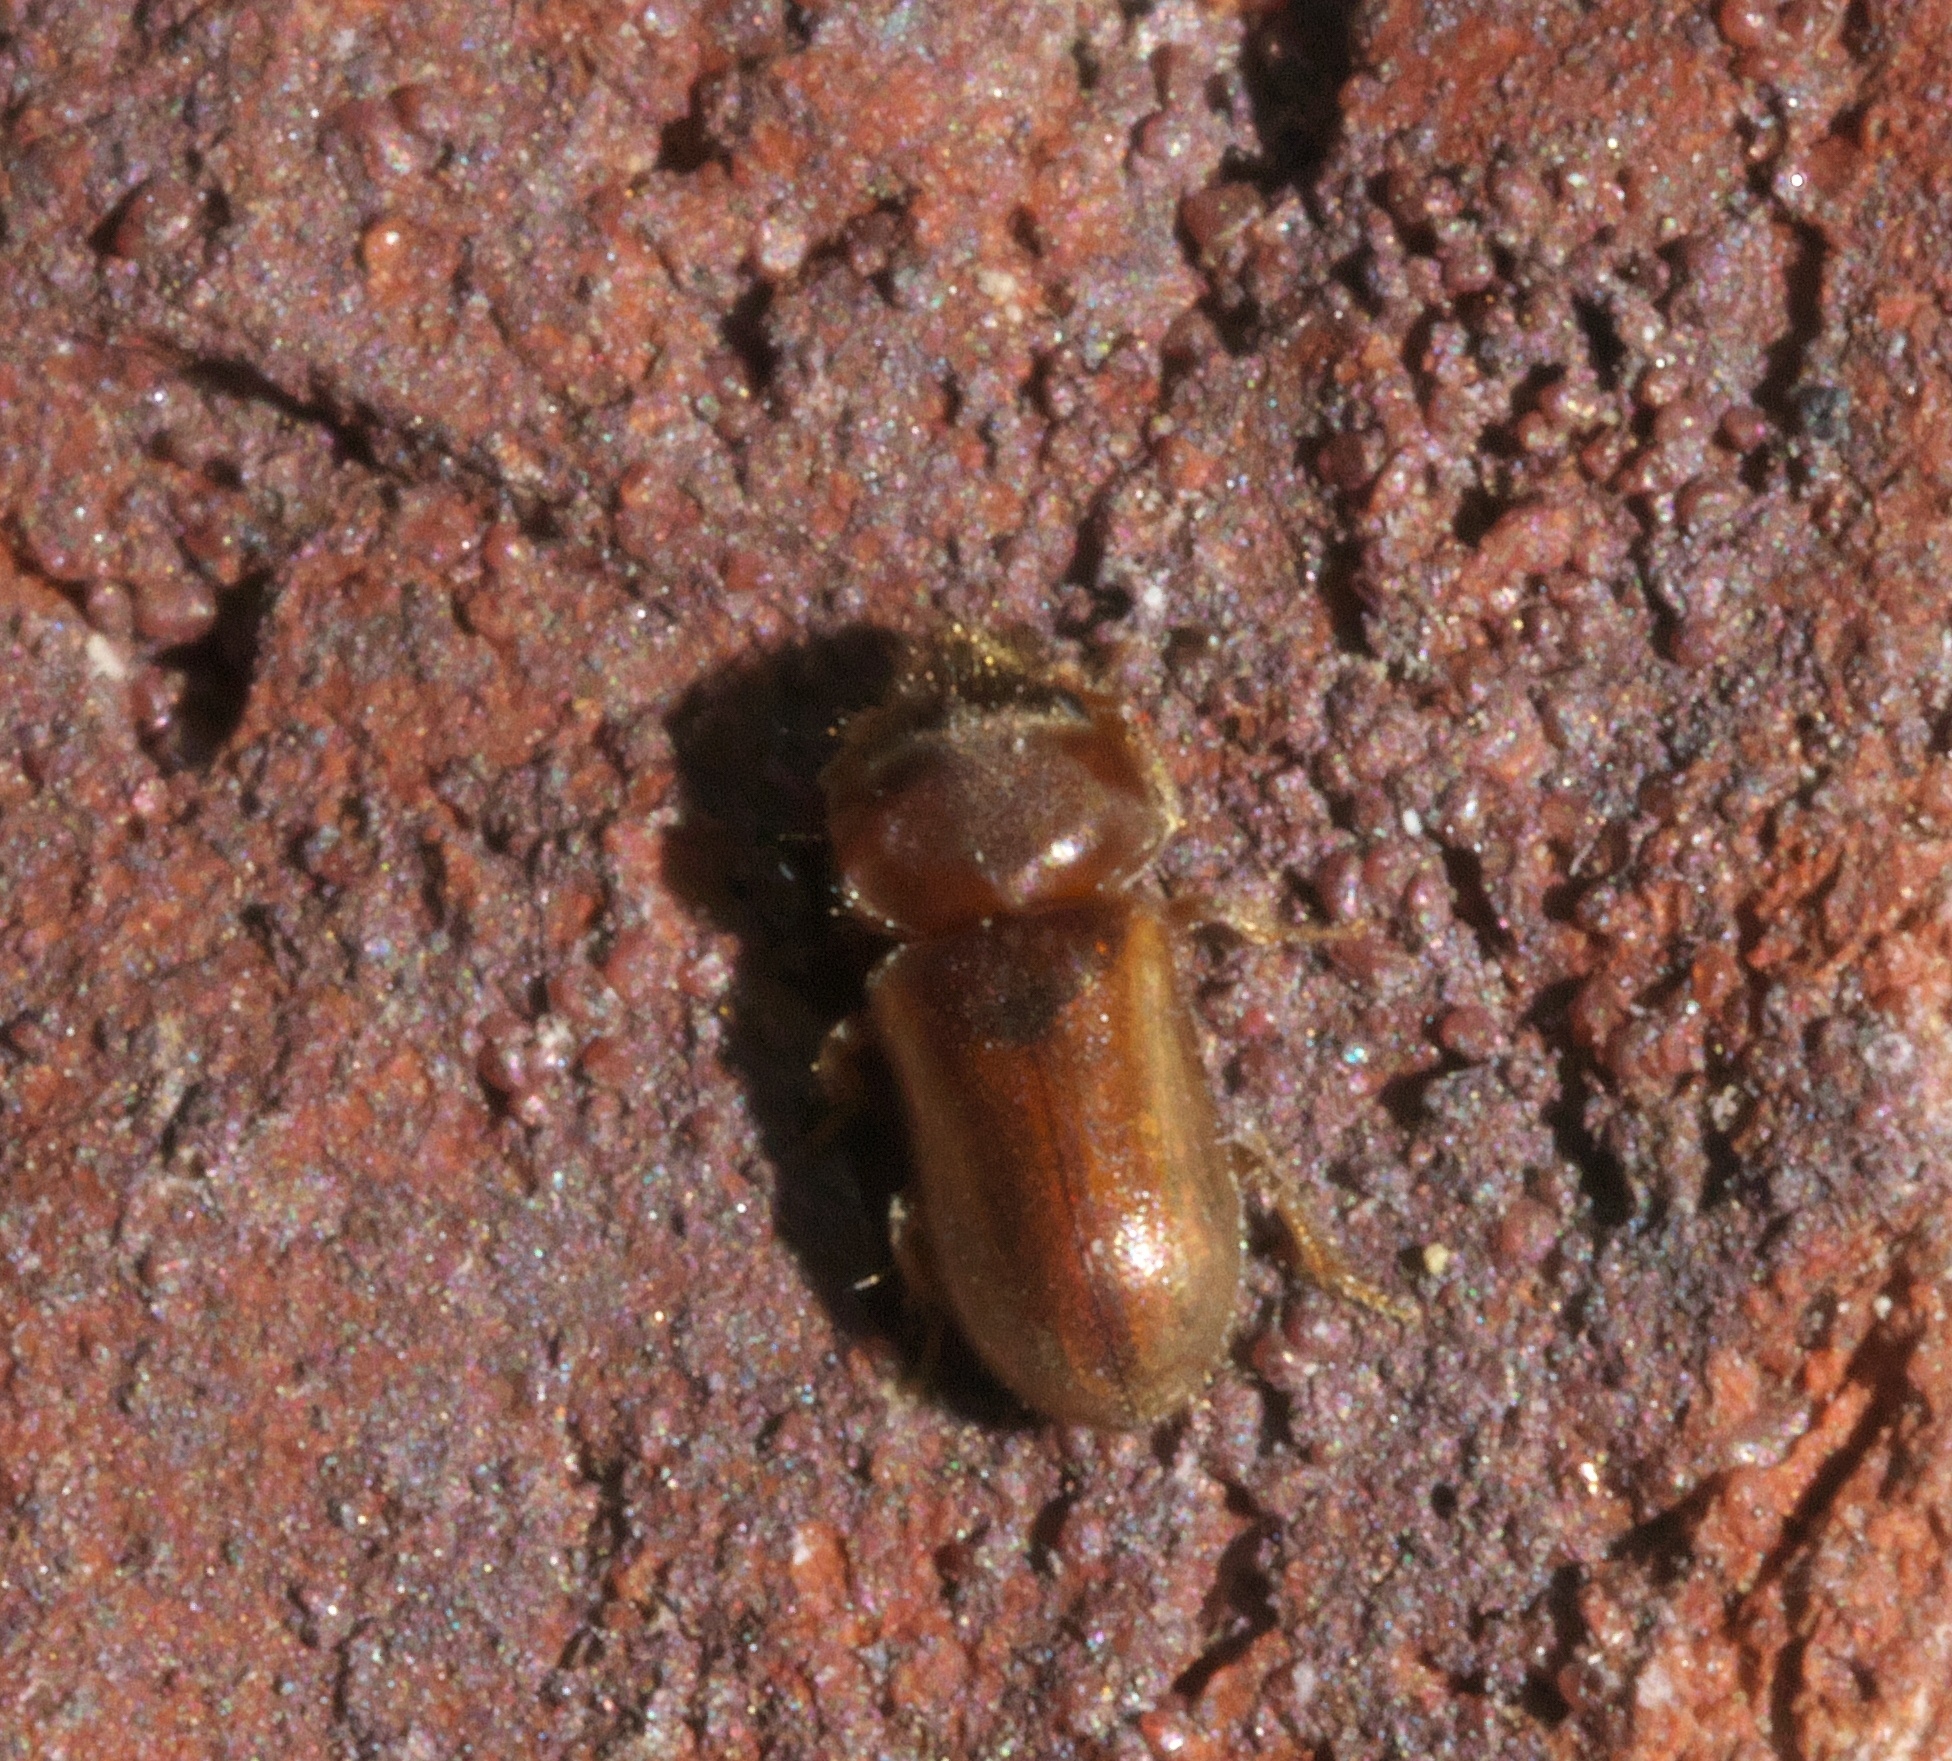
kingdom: Animalia
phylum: Arthropoda
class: Insecta
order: Coleoptera
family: Heteroceridae
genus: Tropicus
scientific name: Tropicus pusillus
